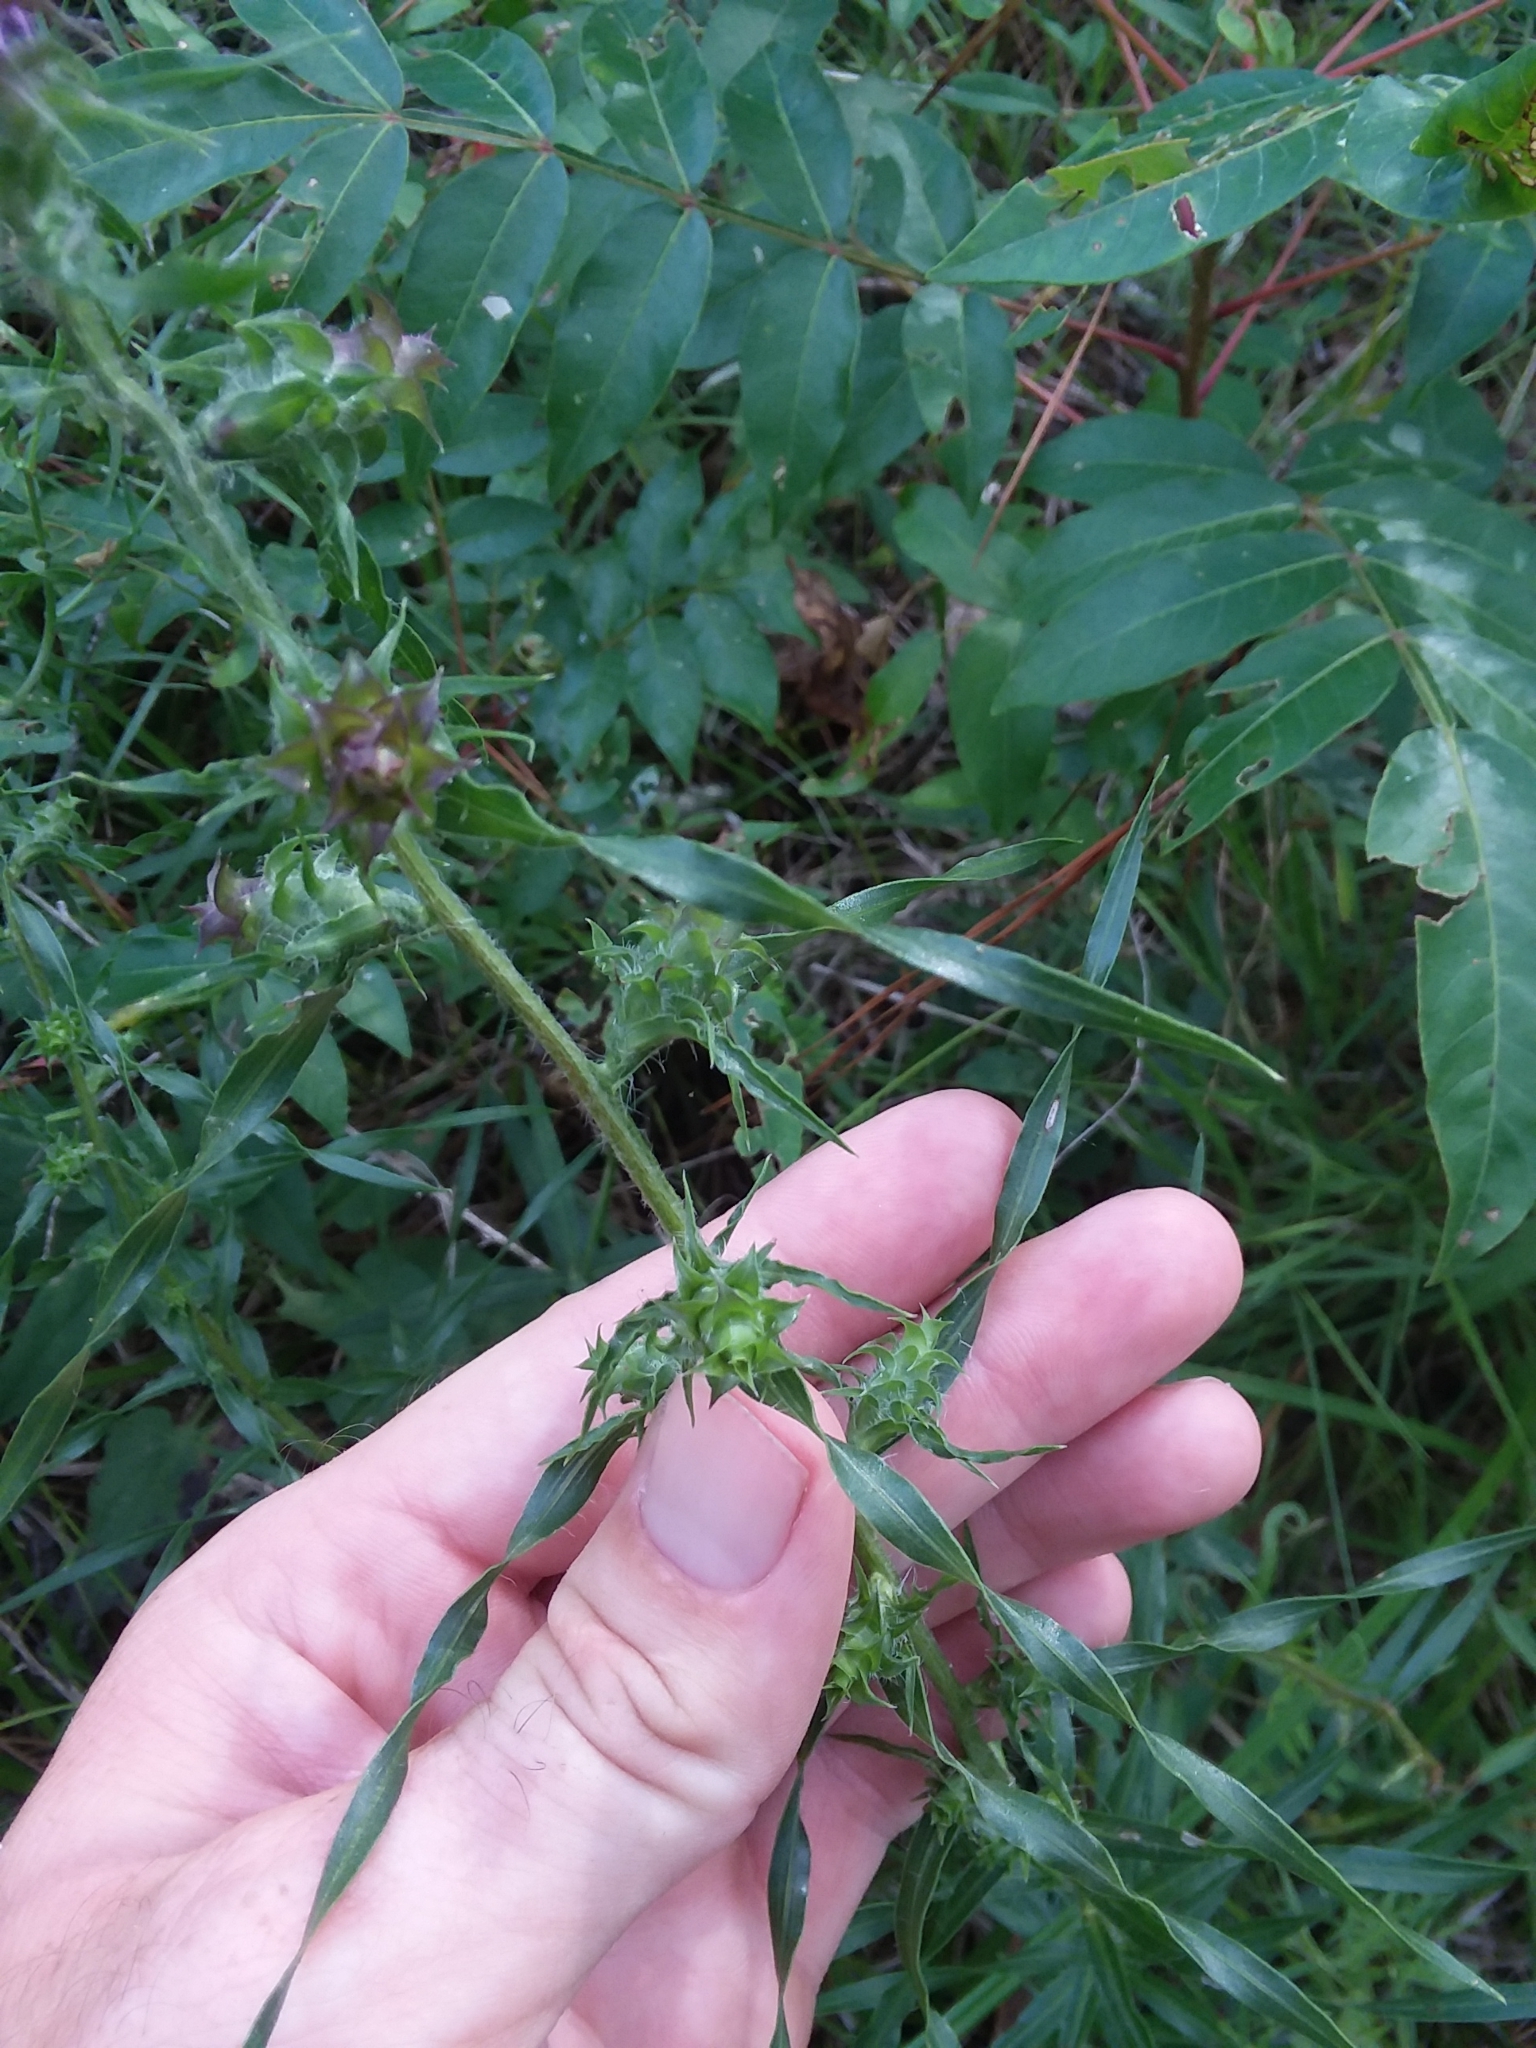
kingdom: Plantae
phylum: Tracheophyta
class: Magnoliopsida
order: Asterales
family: Asteraceae
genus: Liatris
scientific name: Liatris hirsuta
